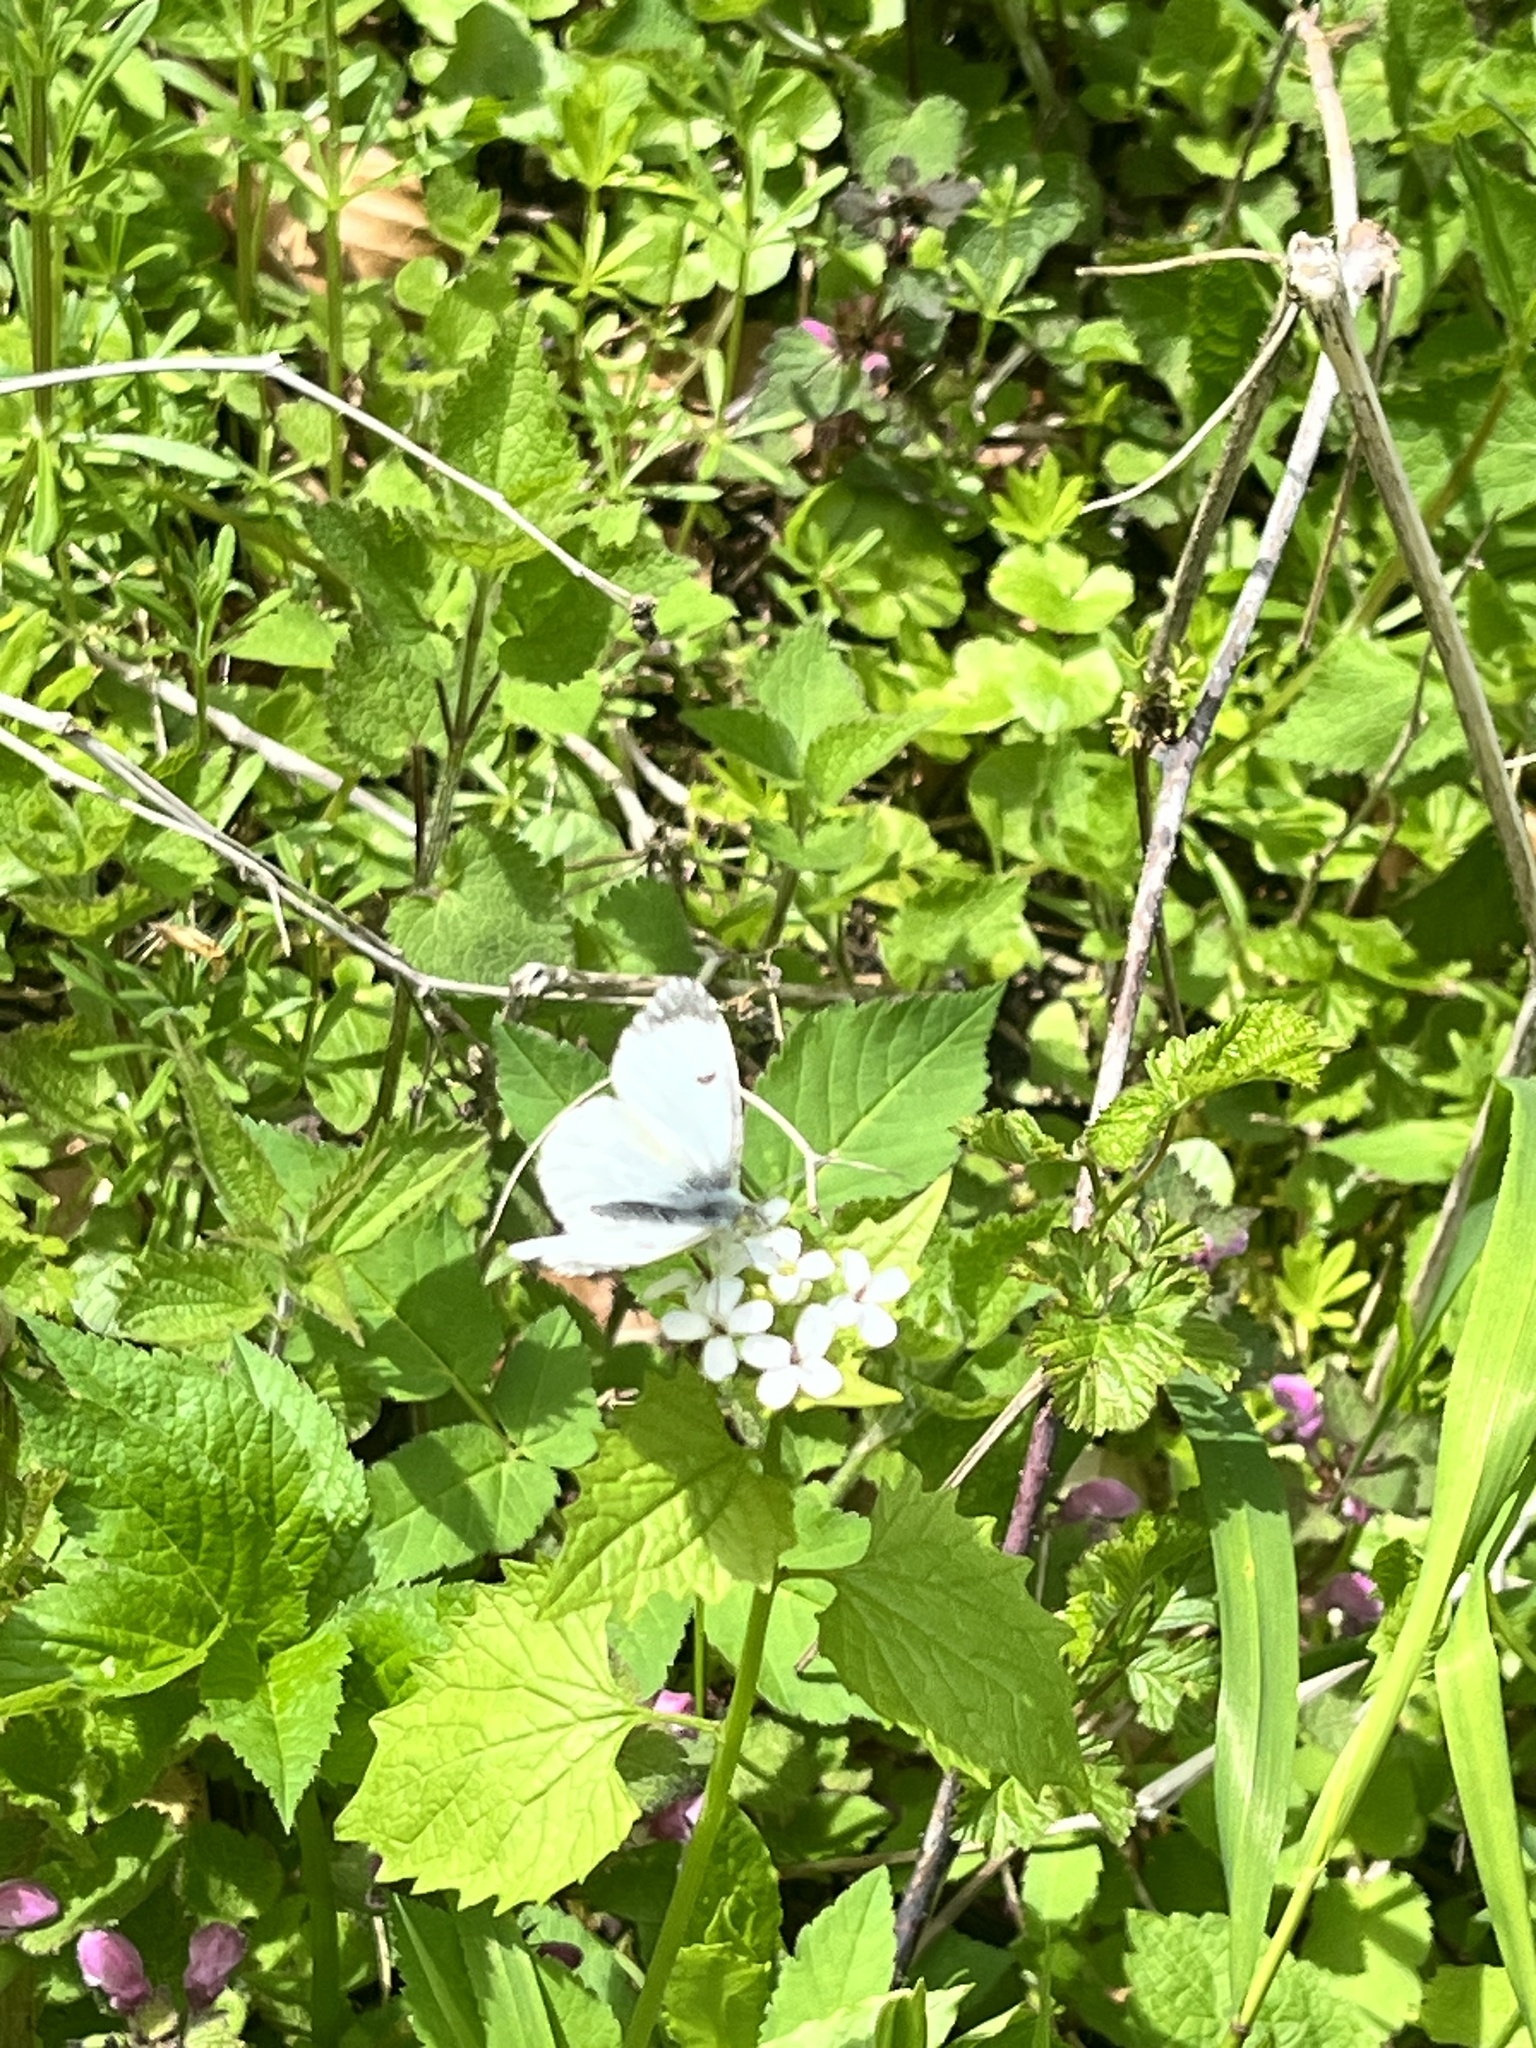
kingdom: Animalia
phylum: Arthropoda
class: Insecta
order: Lepidoptera
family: Pieridae
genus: Anthocharis
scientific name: Anthocharis cardamines
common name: Orange-tip
